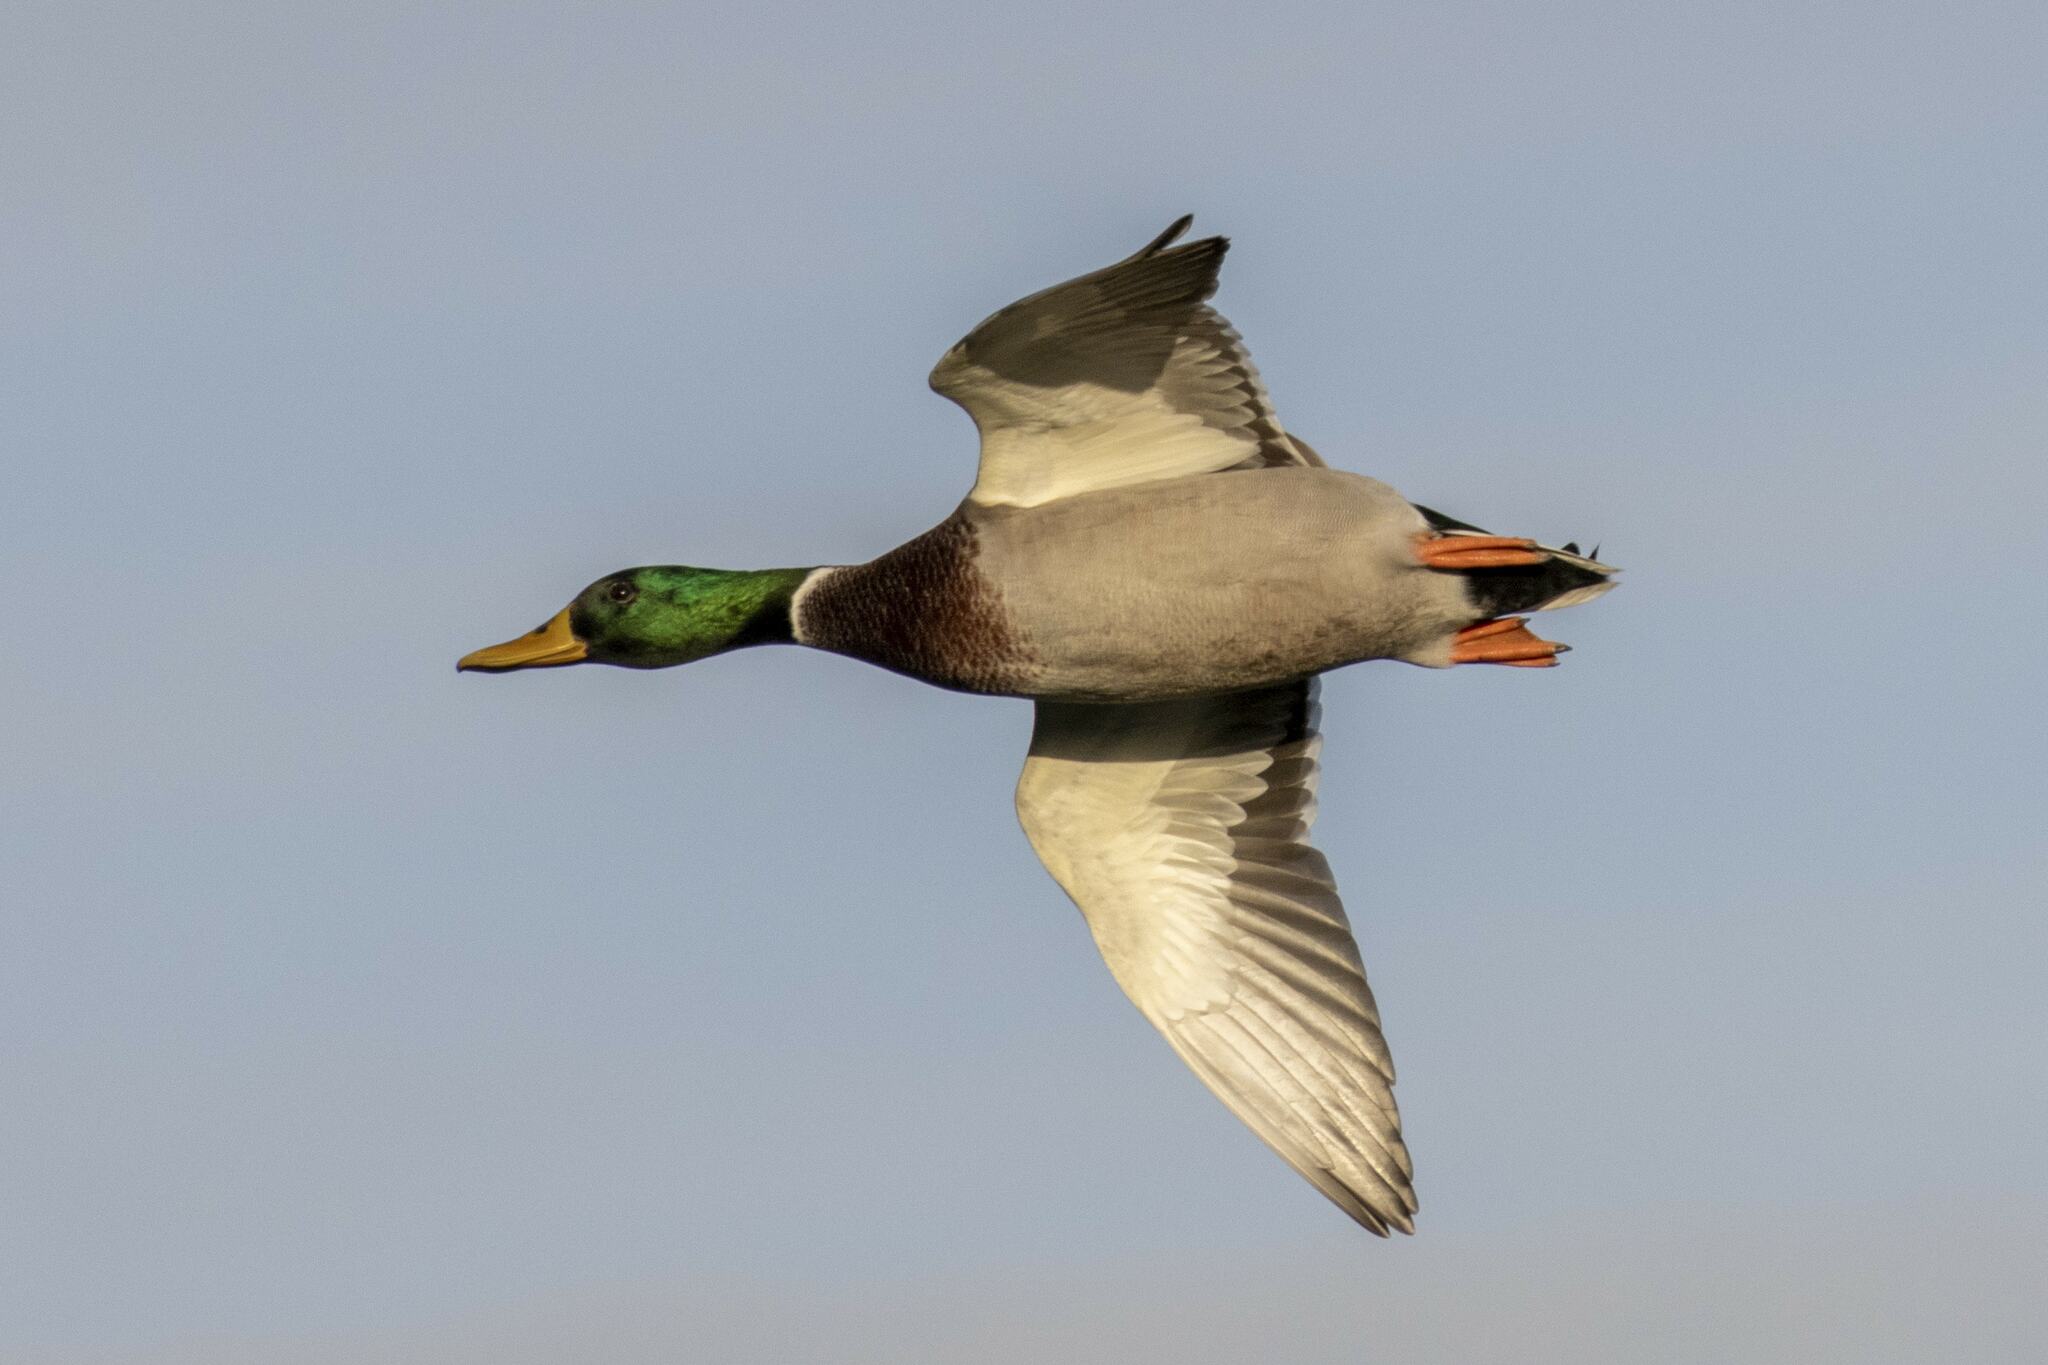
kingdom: Animalia
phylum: Chordata
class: Aves
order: Anseriformes
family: Anatidae
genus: Anas
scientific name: Anas platyrhynchos
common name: Mallard
